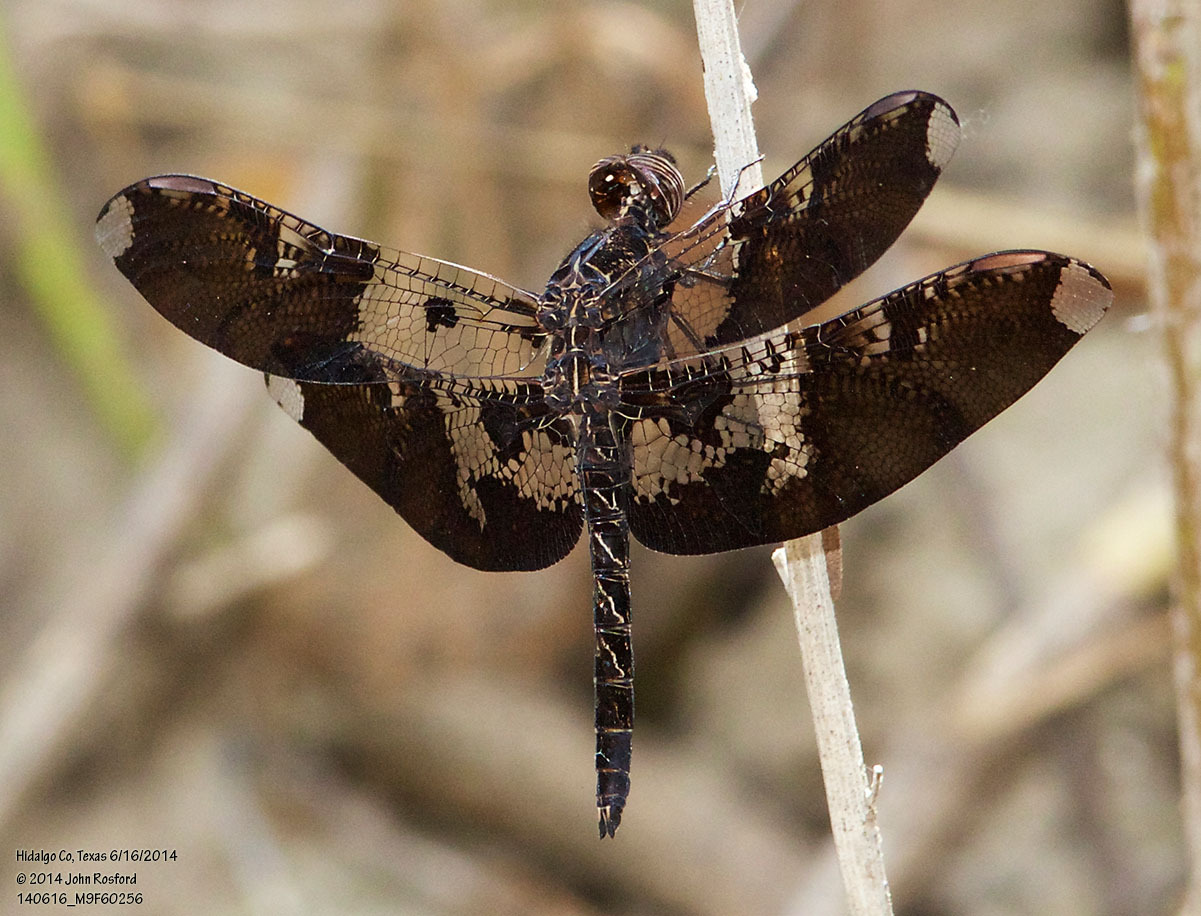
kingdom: Animalia
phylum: Arthropoda
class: Insecta
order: Odonata
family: Libellulidae
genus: Pseudoleon
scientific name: Pseudoleon superbus
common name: Filigree skimmer
